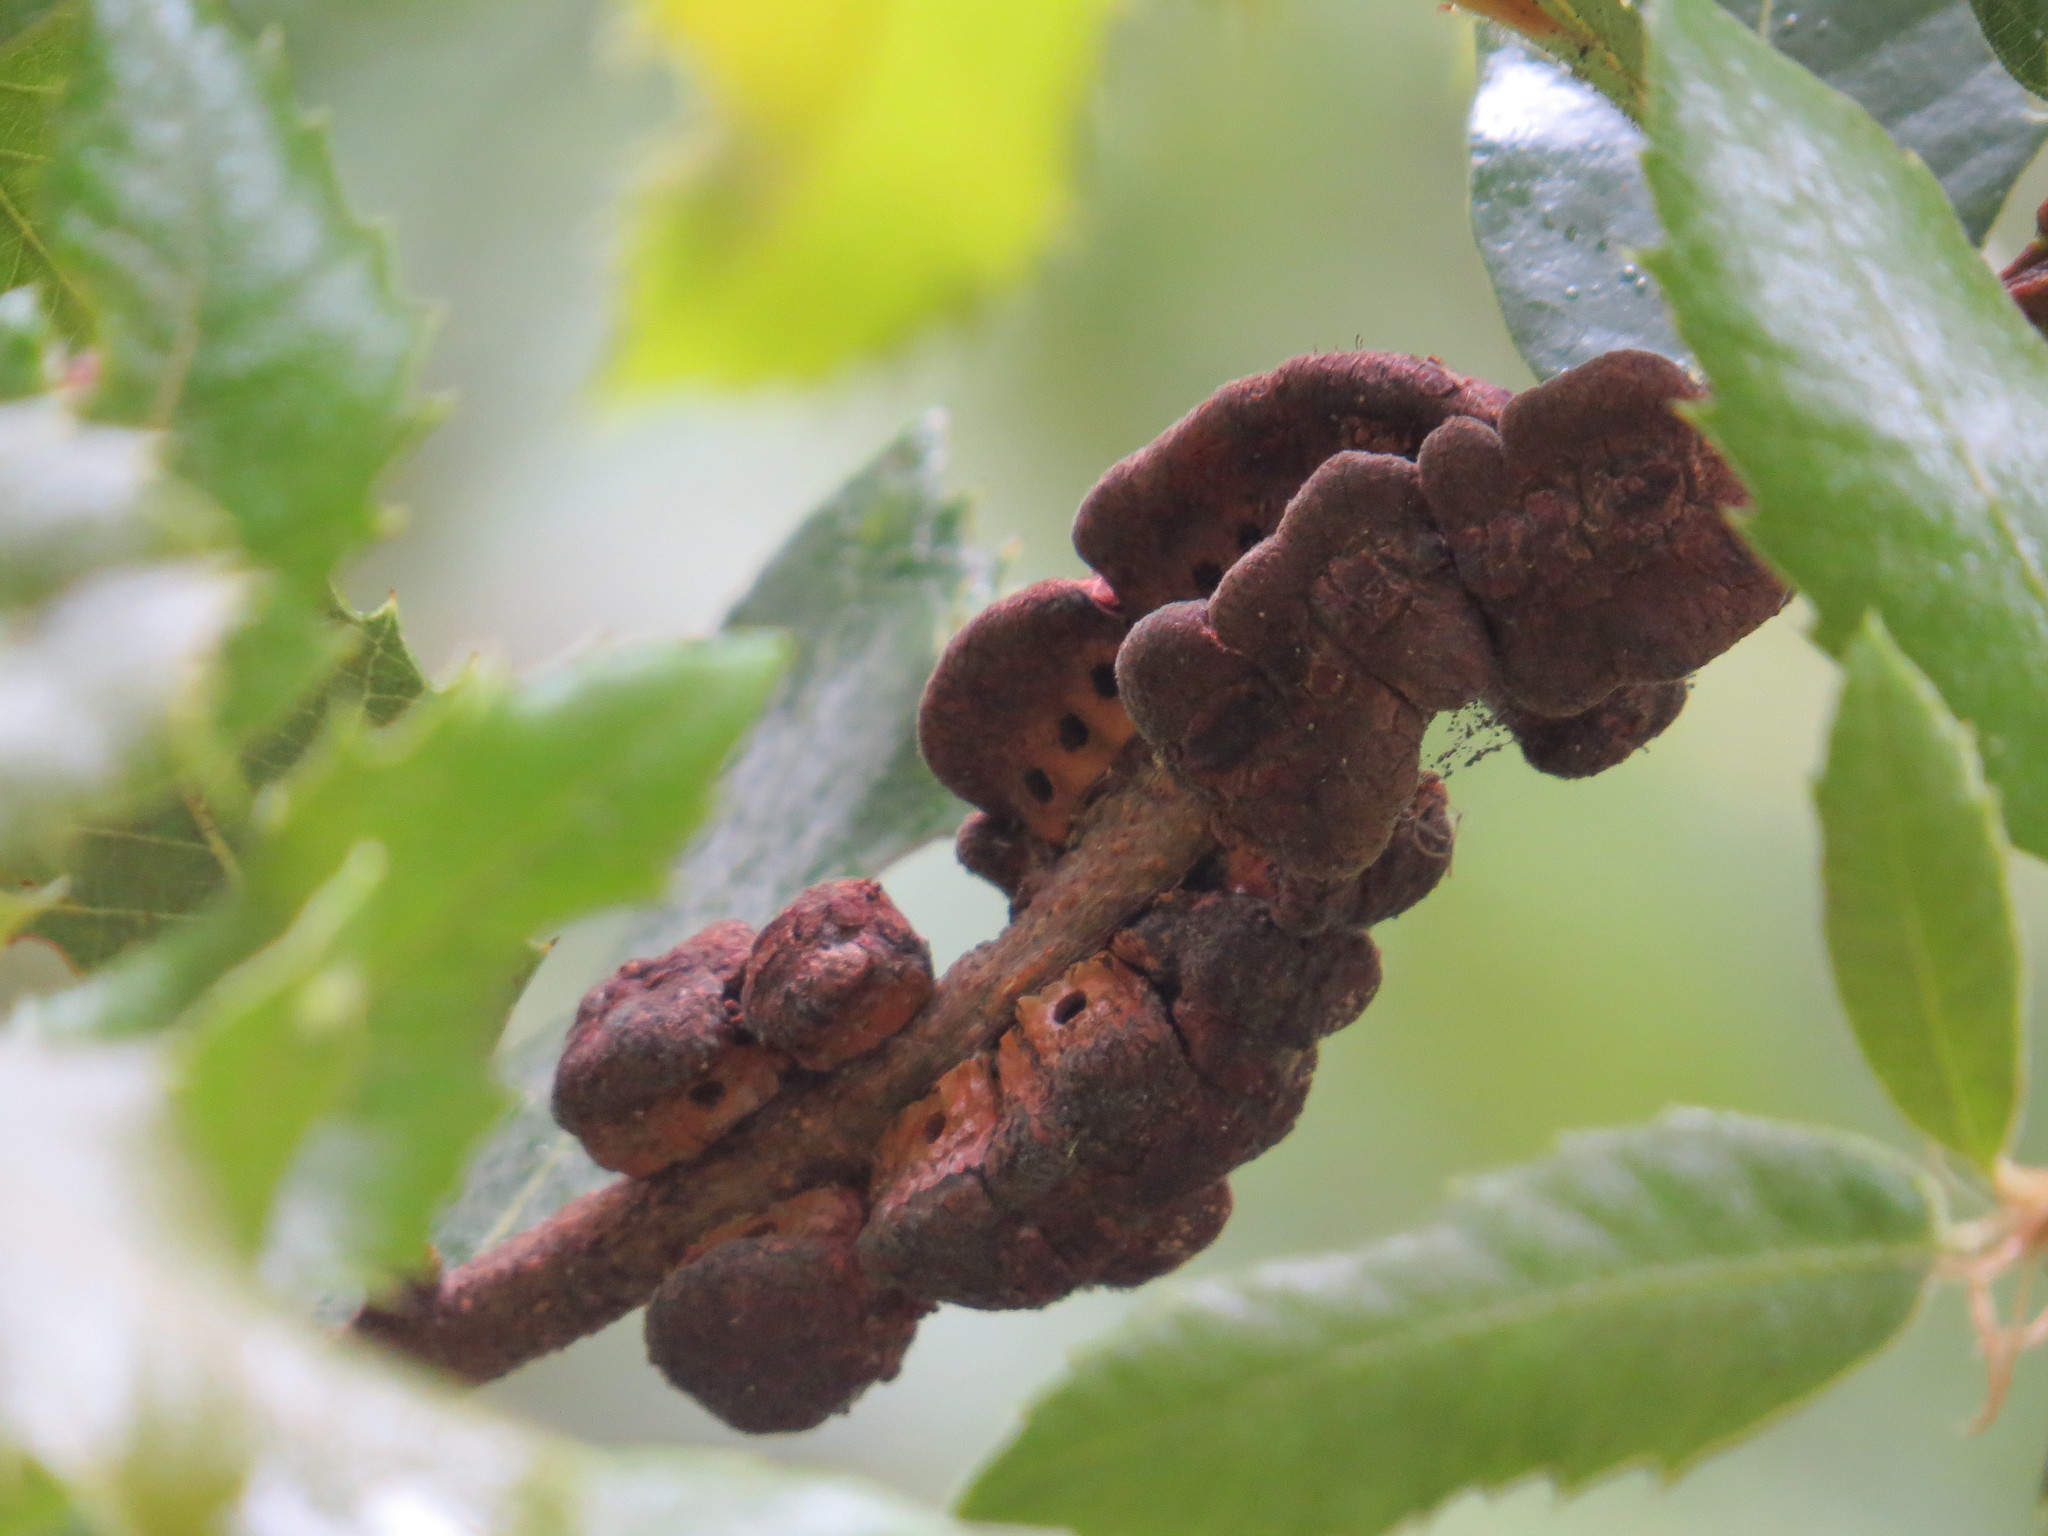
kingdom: Animalia
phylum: Arthropoda
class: Insecta
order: Hymenoptera
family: Cynipidae
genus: Disholandricus
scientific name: Disholandricus
